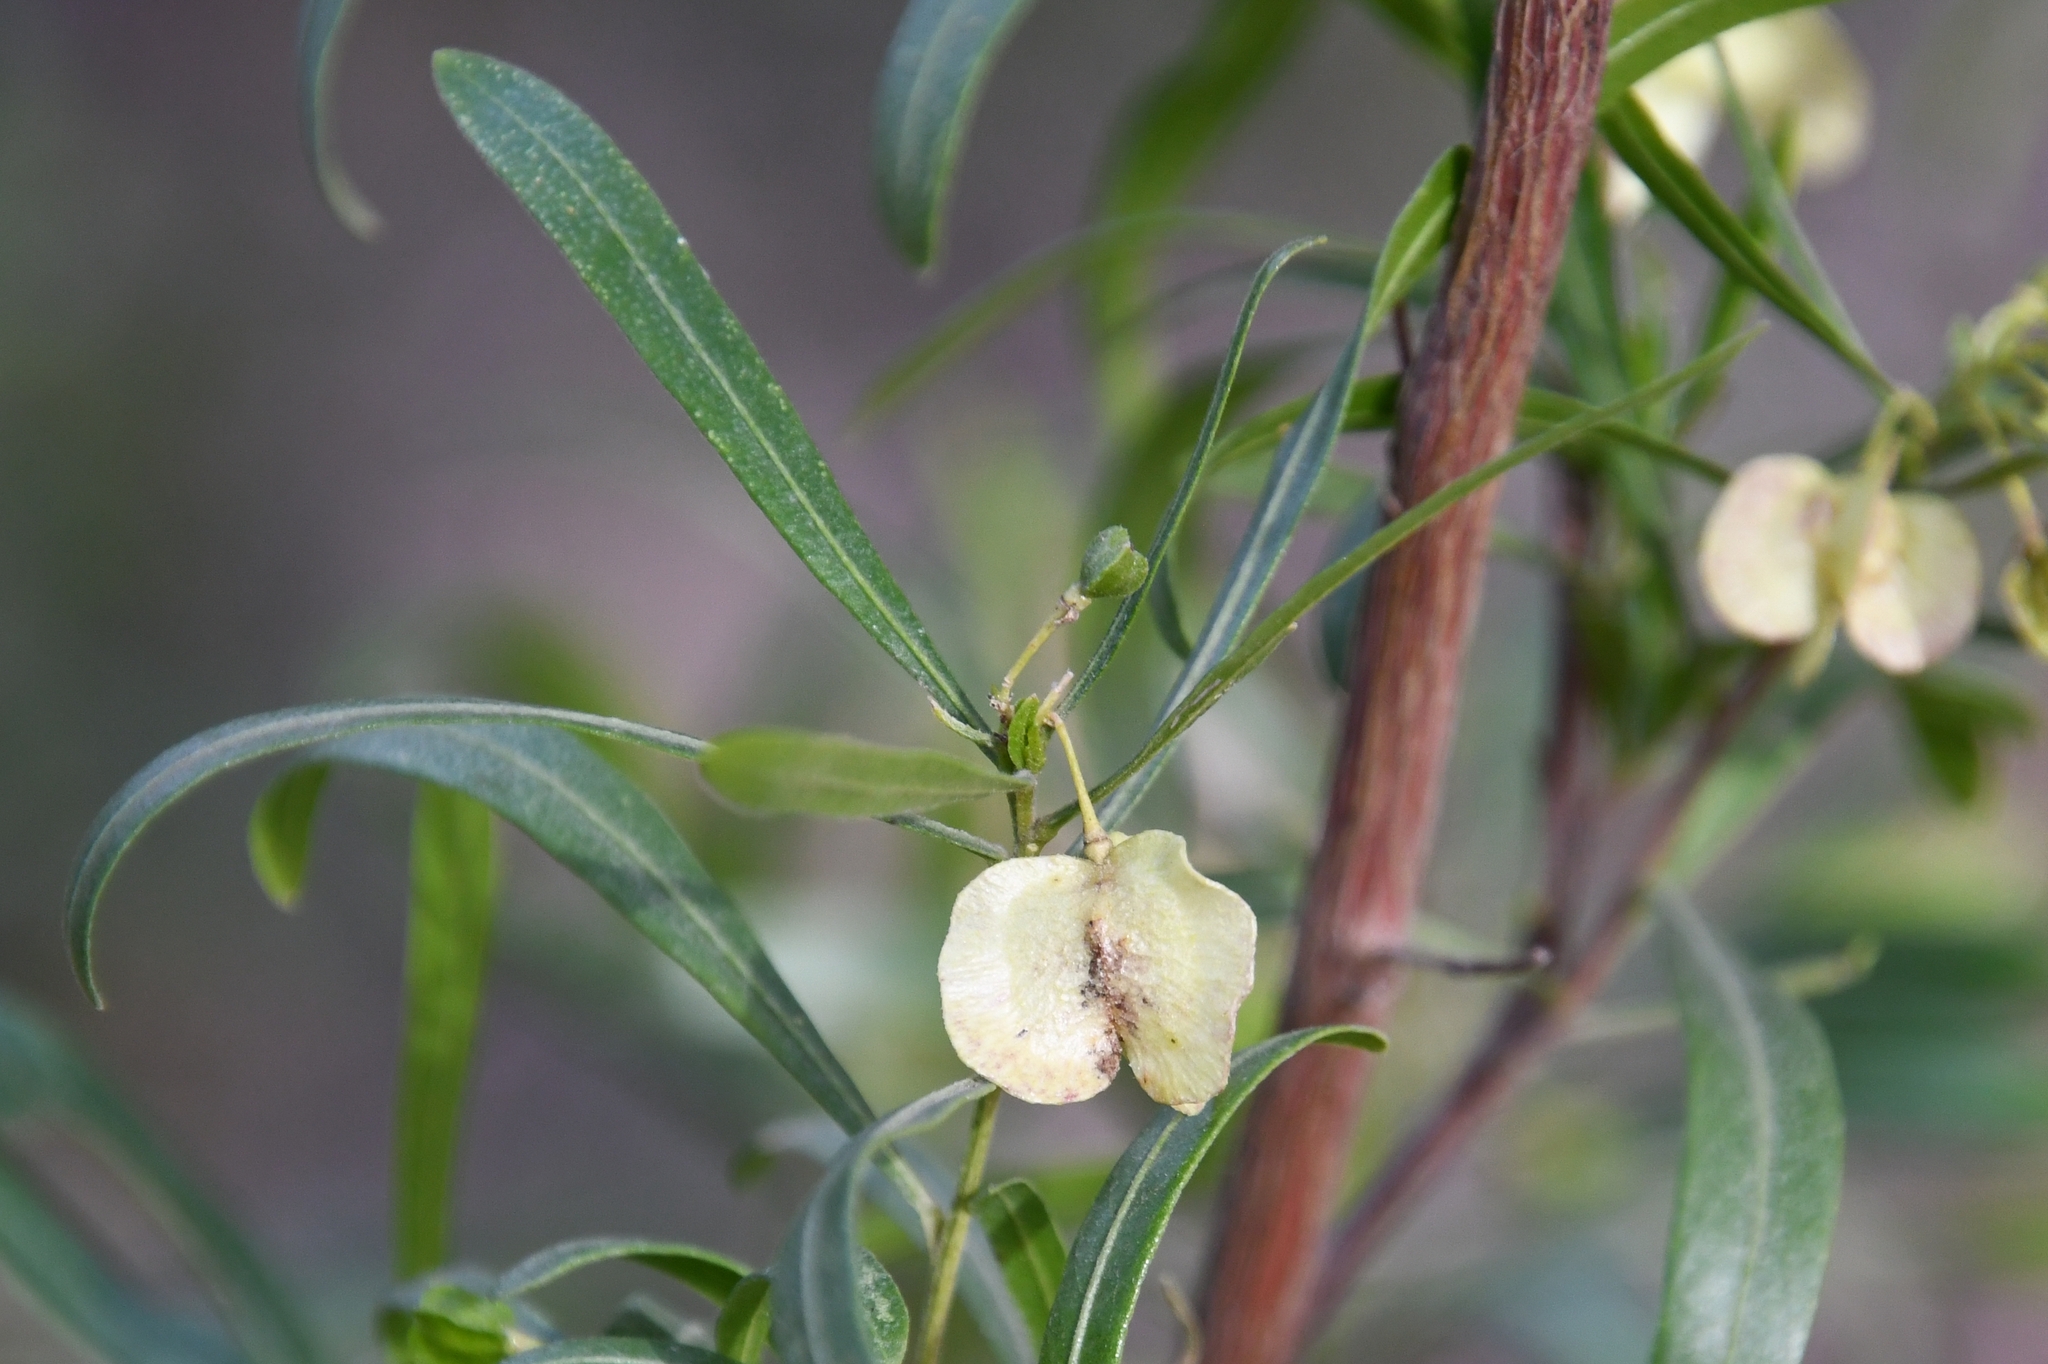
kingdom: Plantae
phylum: Tracheophyta
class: Magnoliopsida
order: Sapindales
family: Sapindaceae
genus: Dodonaea
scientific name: Dodonaea viscosa
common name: Hopbush
